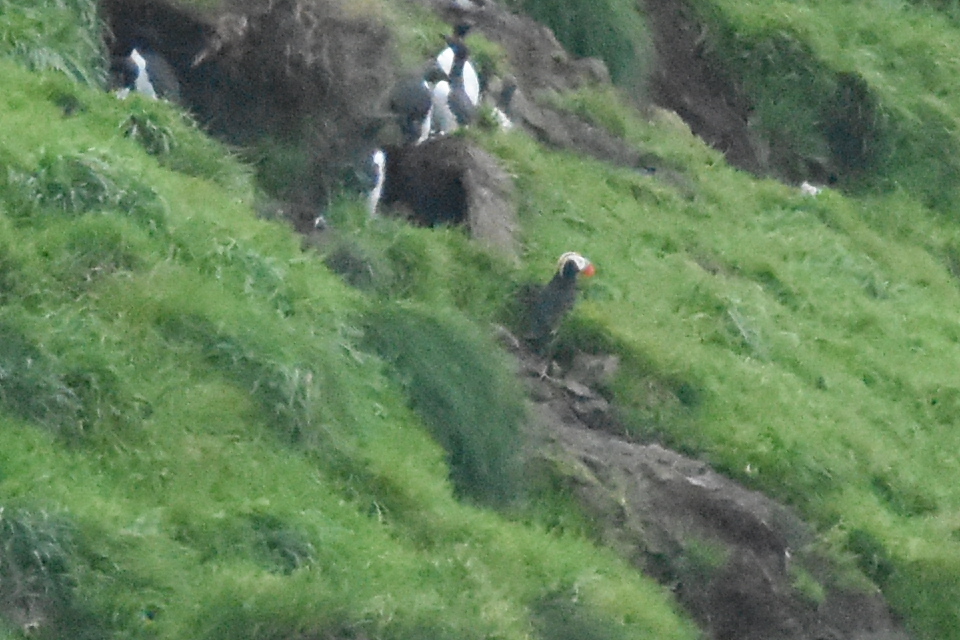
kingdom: Animalia
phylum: Chordata
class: Aves
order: Charadriiformes
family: Alcidae
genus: Fratercula
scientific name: Fratercula cirrhata
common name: Tufted puffin
